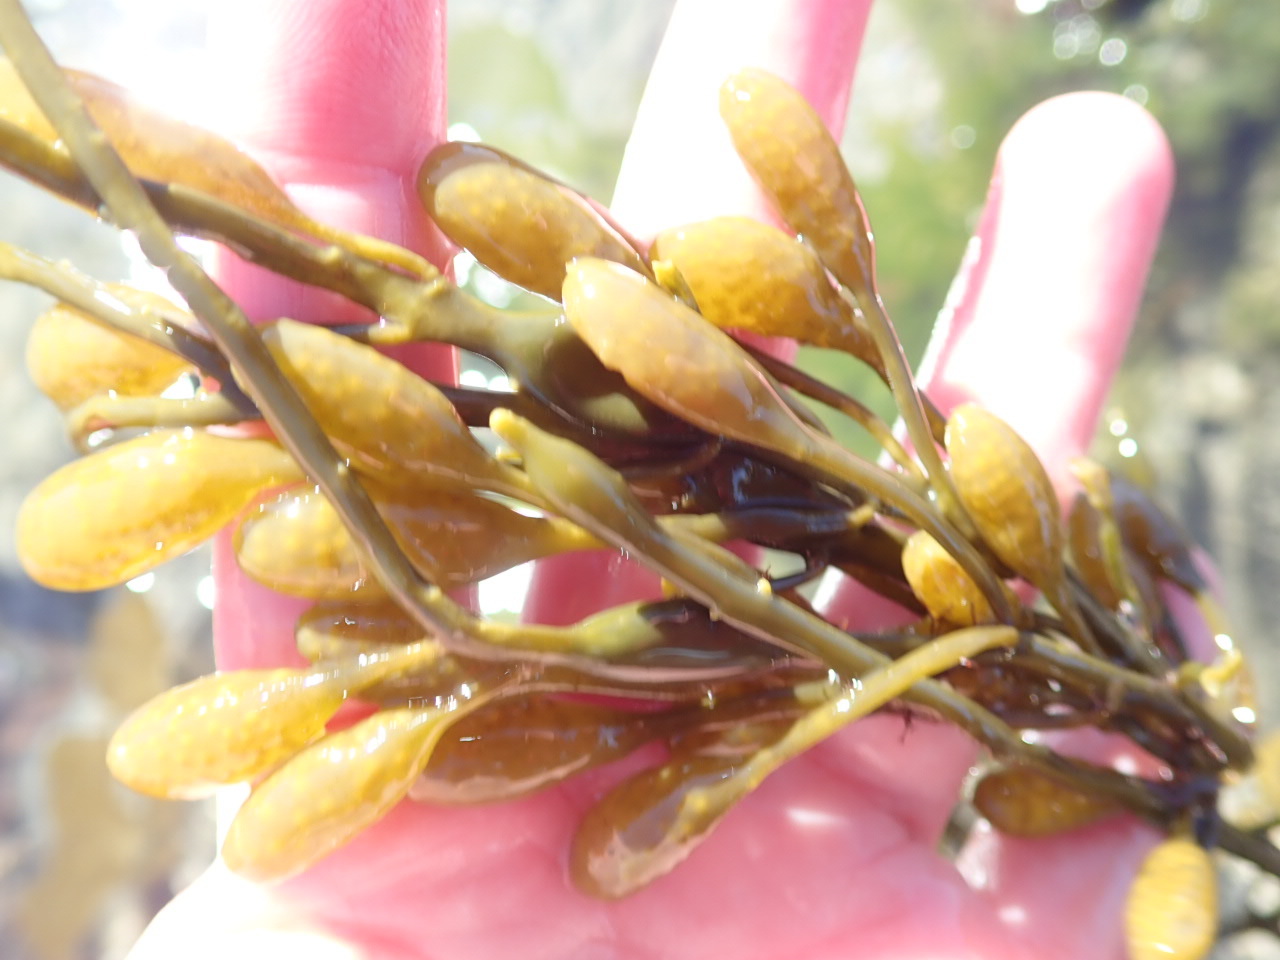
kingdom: Chromista
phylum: Ochrophyta
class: Phaeophyceae
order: Fucales
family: Fucaceae
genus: Ascophyllum
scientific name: Ascophyllum nodosum
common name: Knotted wrack
